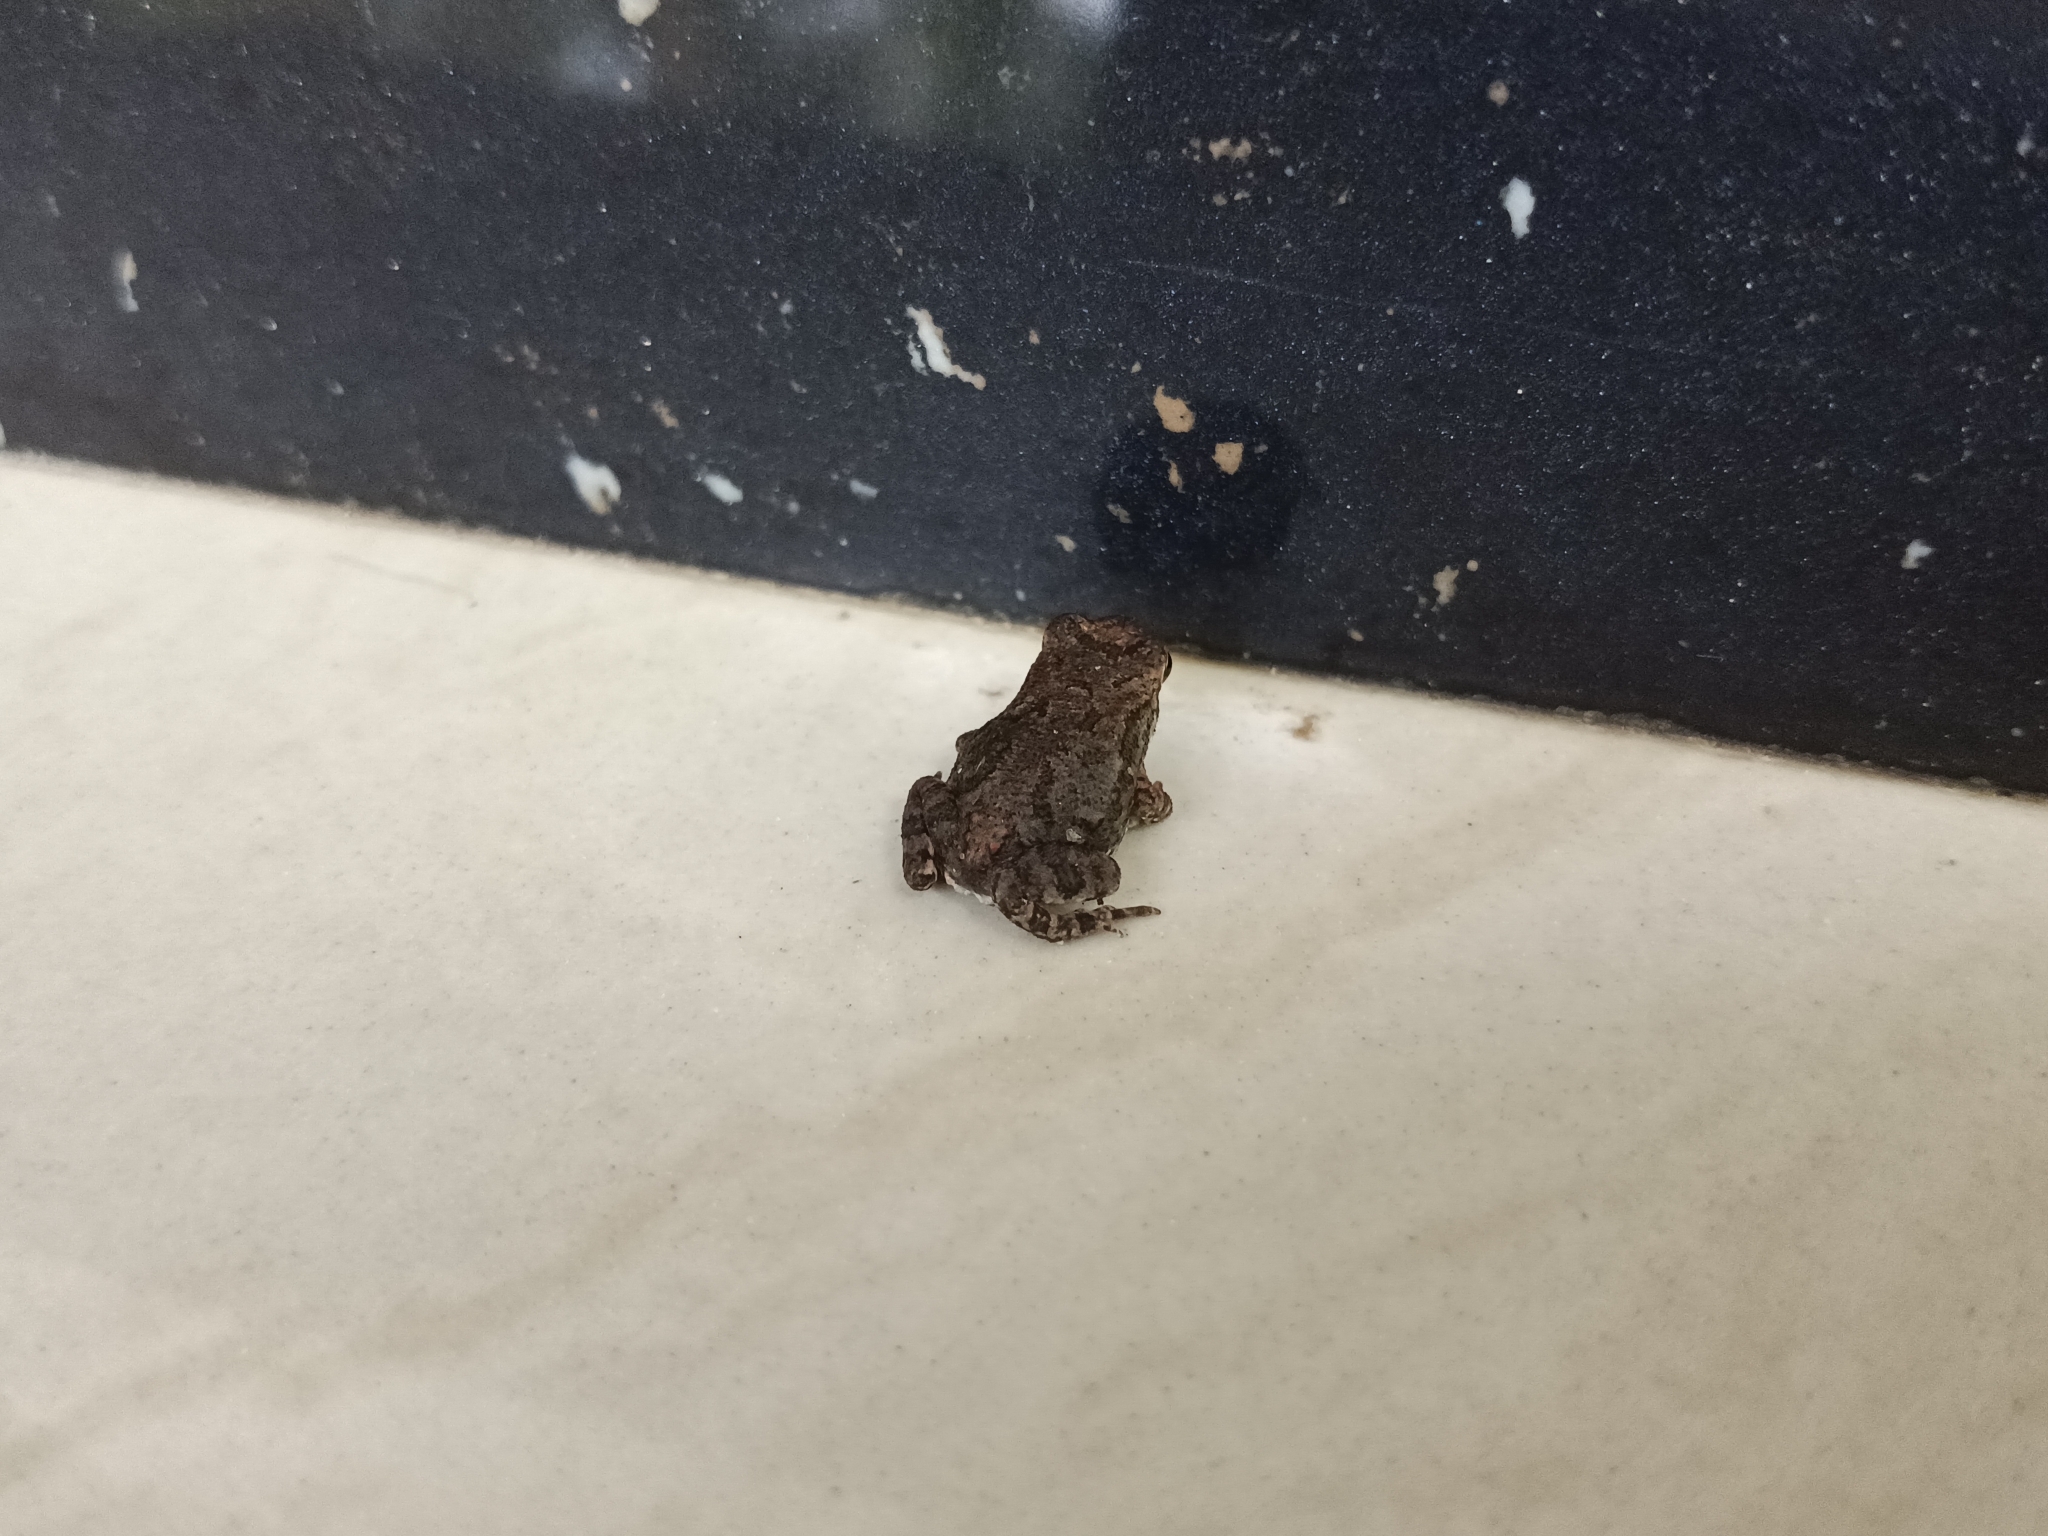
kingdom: Animalia
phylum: Chordata
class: Amphibia
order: Anura
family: Bufonidae
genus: Duttaphrynus
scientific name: Duttaphrynus melanostictus
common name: Common sunda toad
